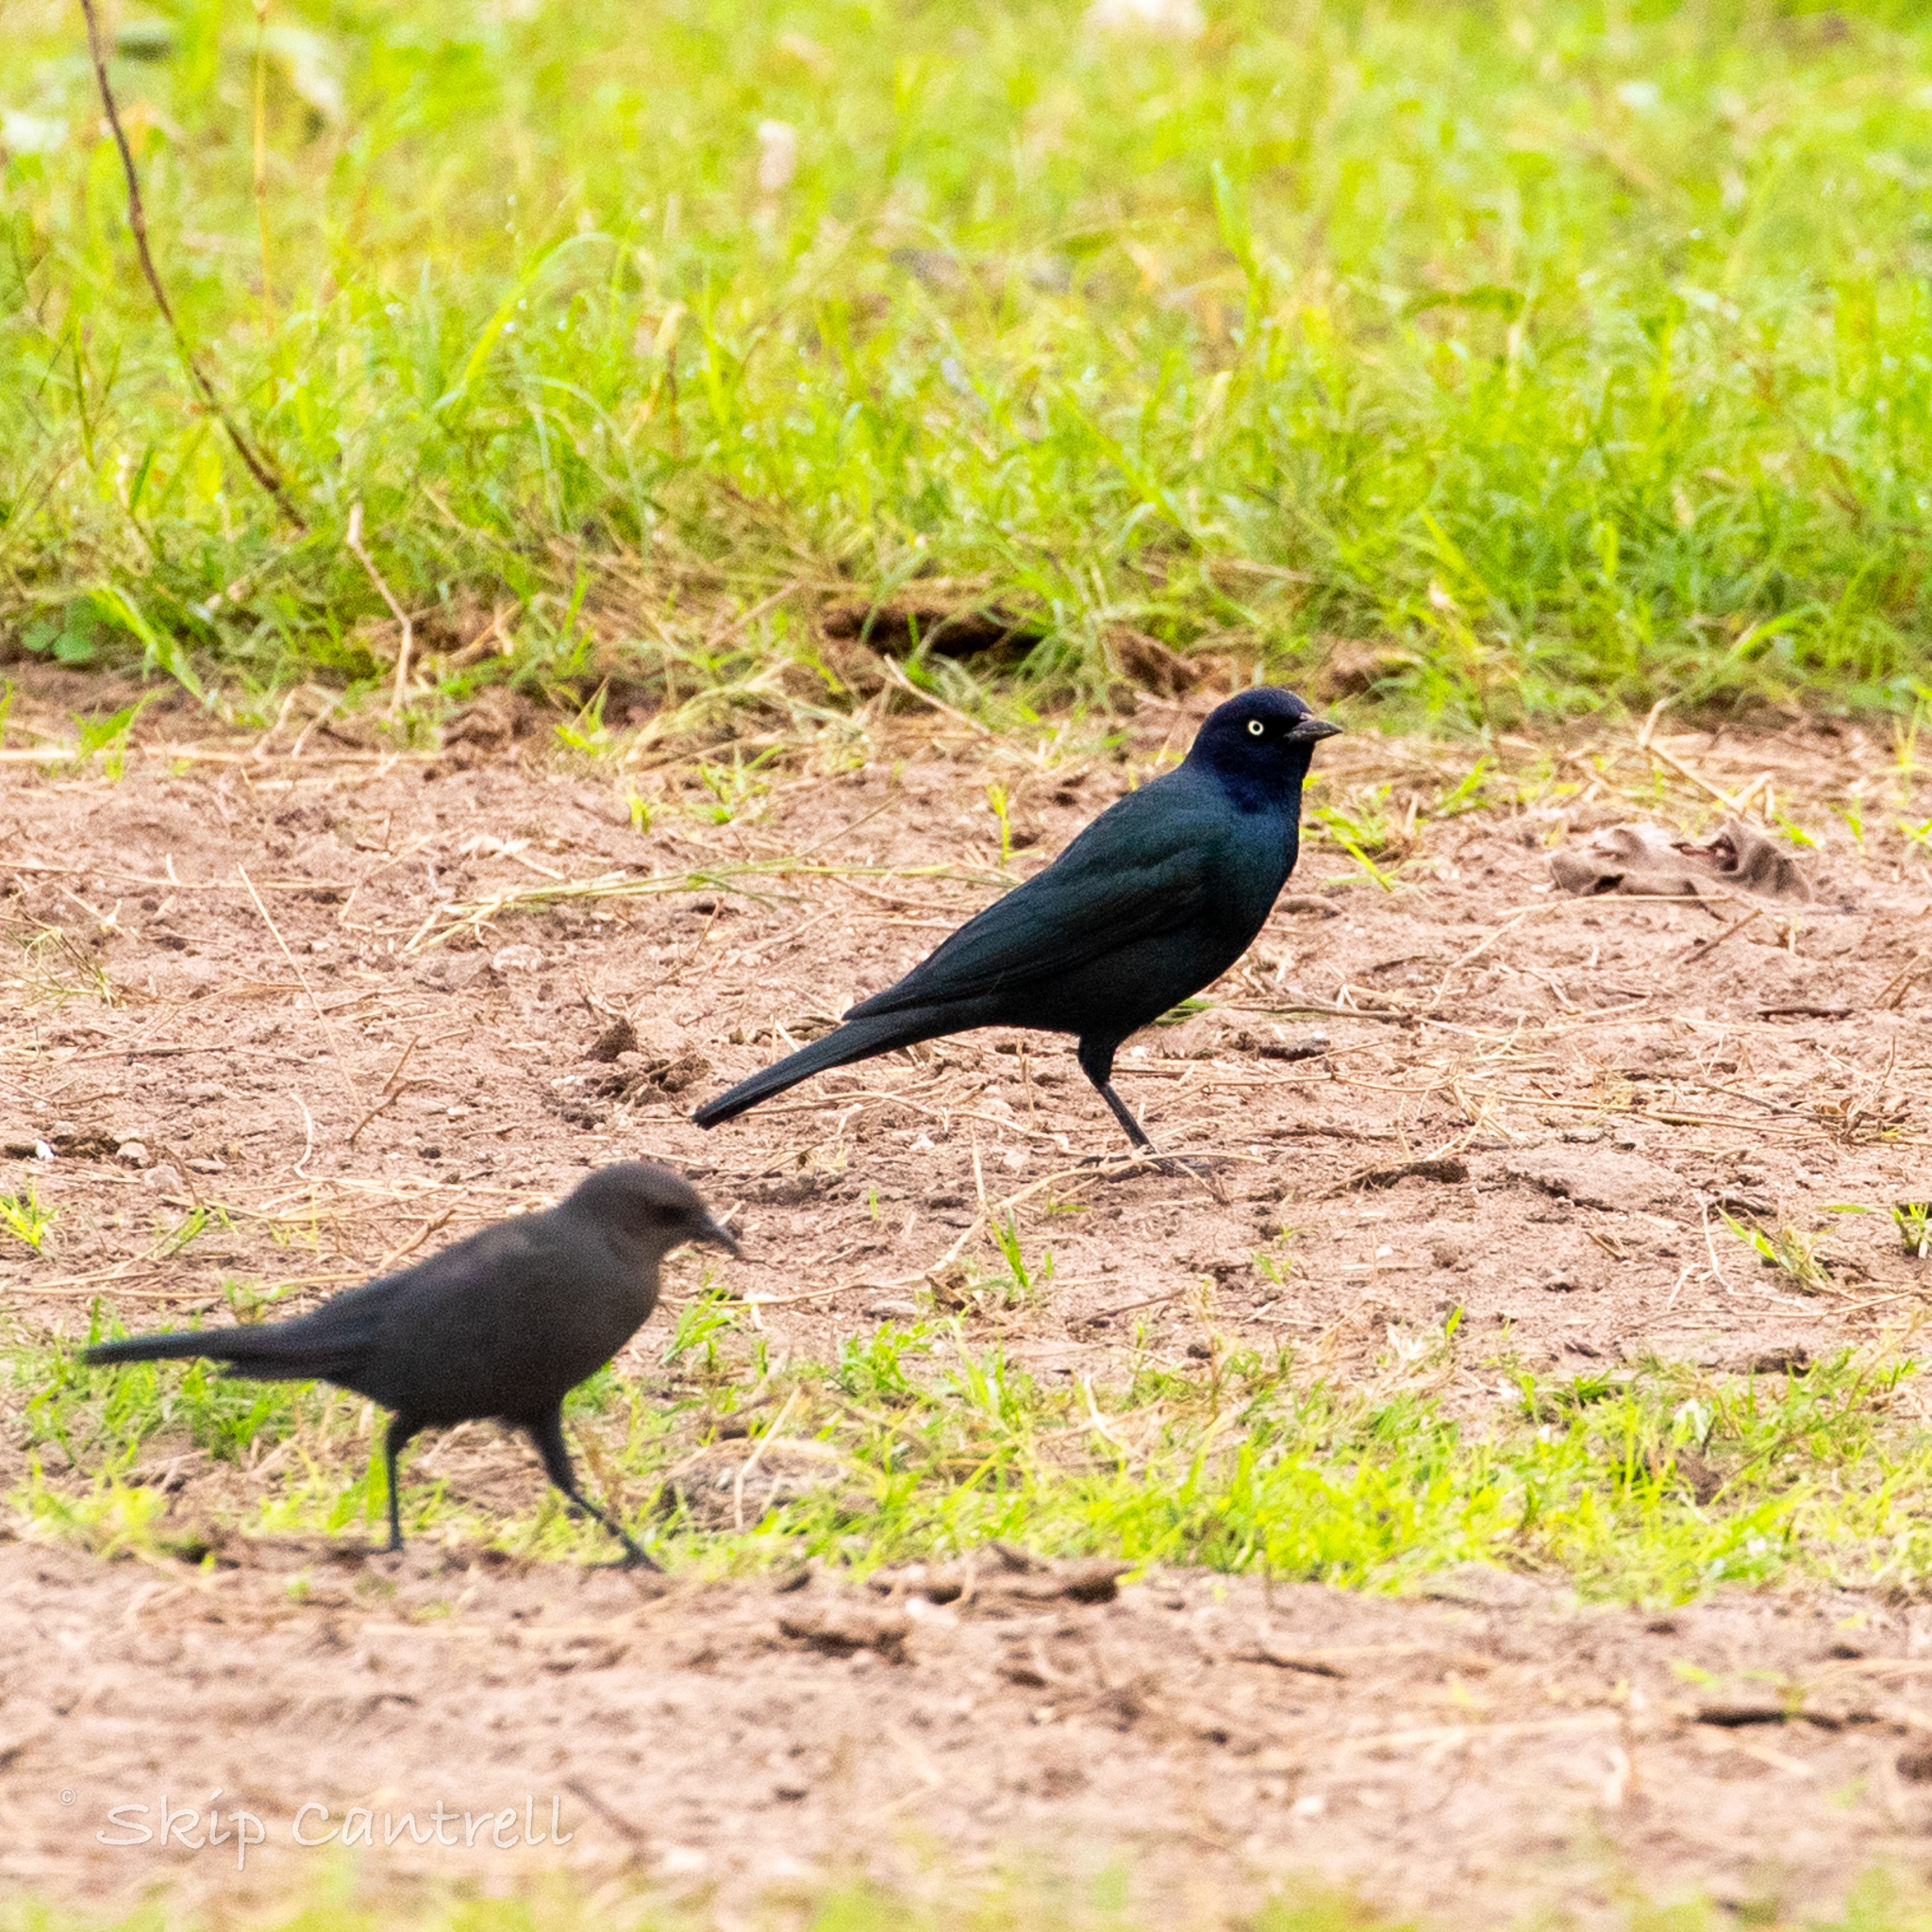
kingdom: Animalia
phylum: Chordata
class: Aves
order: Passeriformes
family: Icteridae
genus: Euphagus
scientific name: Euphagus cyanocephalus
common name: Brewer's blackbird
